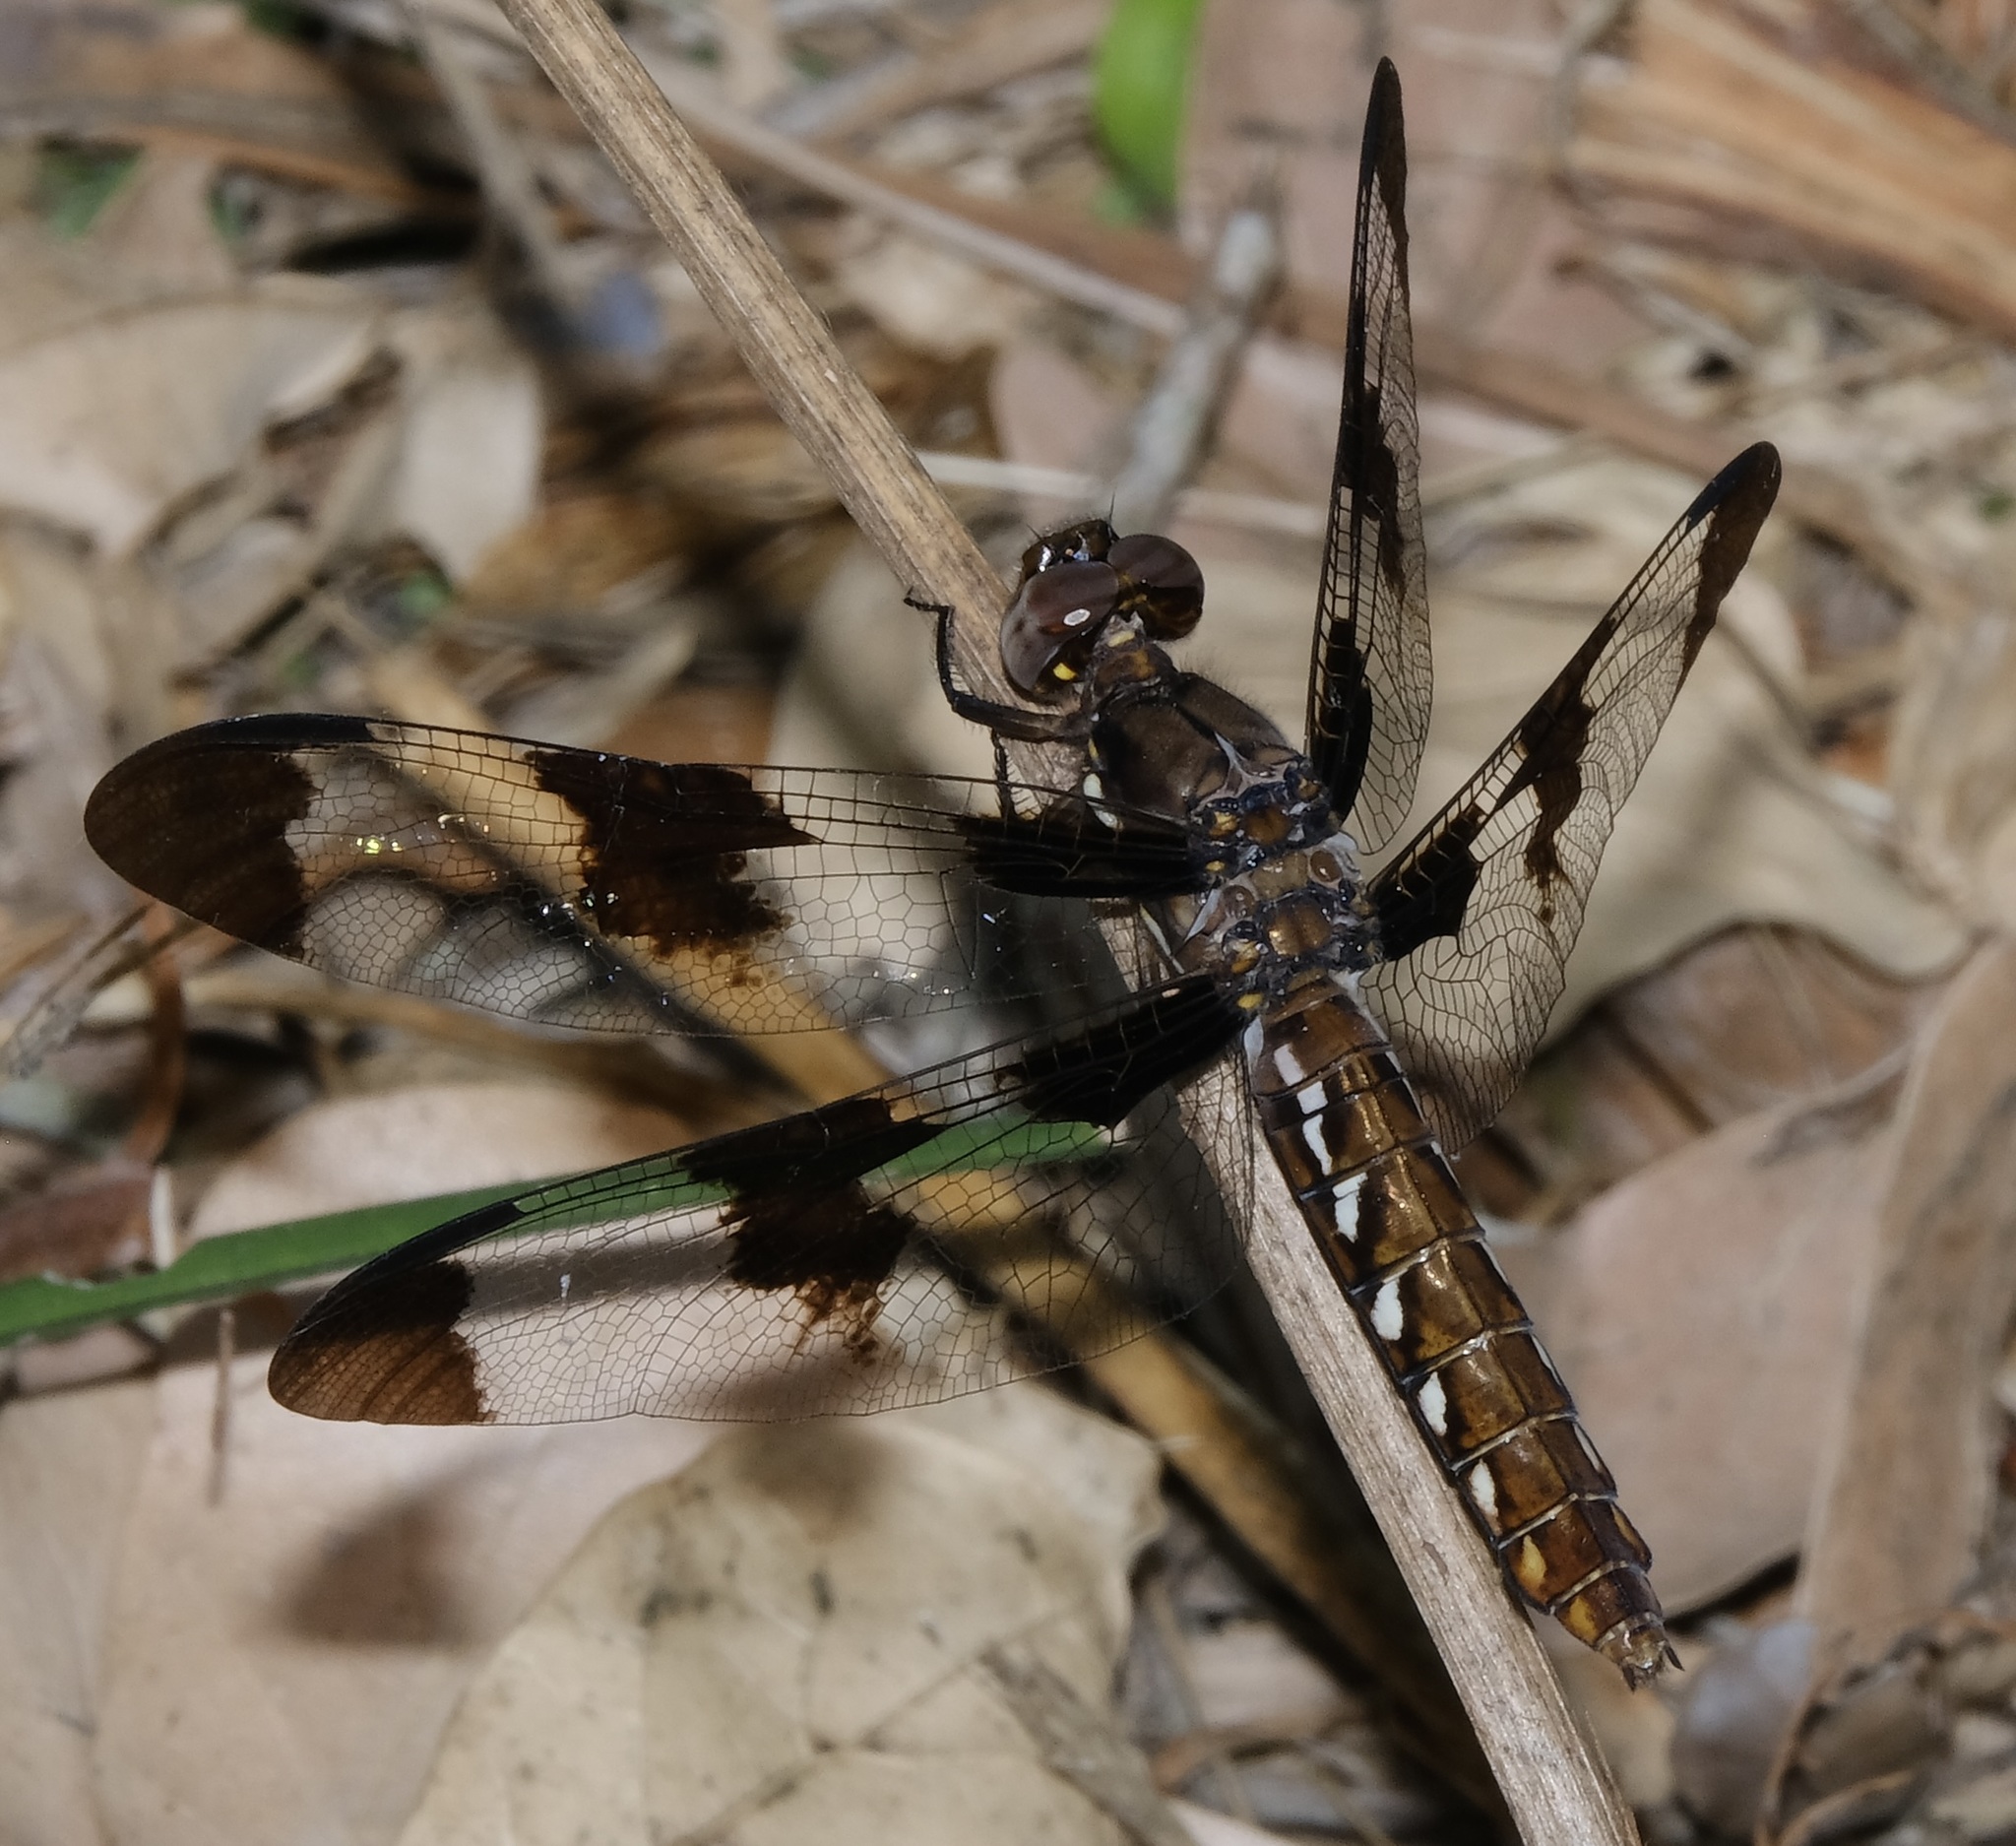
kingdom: Animalia
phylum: Arthropoda
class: Insecta
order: Odonata
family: Libellulidae
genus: Plathemis
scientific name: Plathemis lydia
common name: Common whitetail
